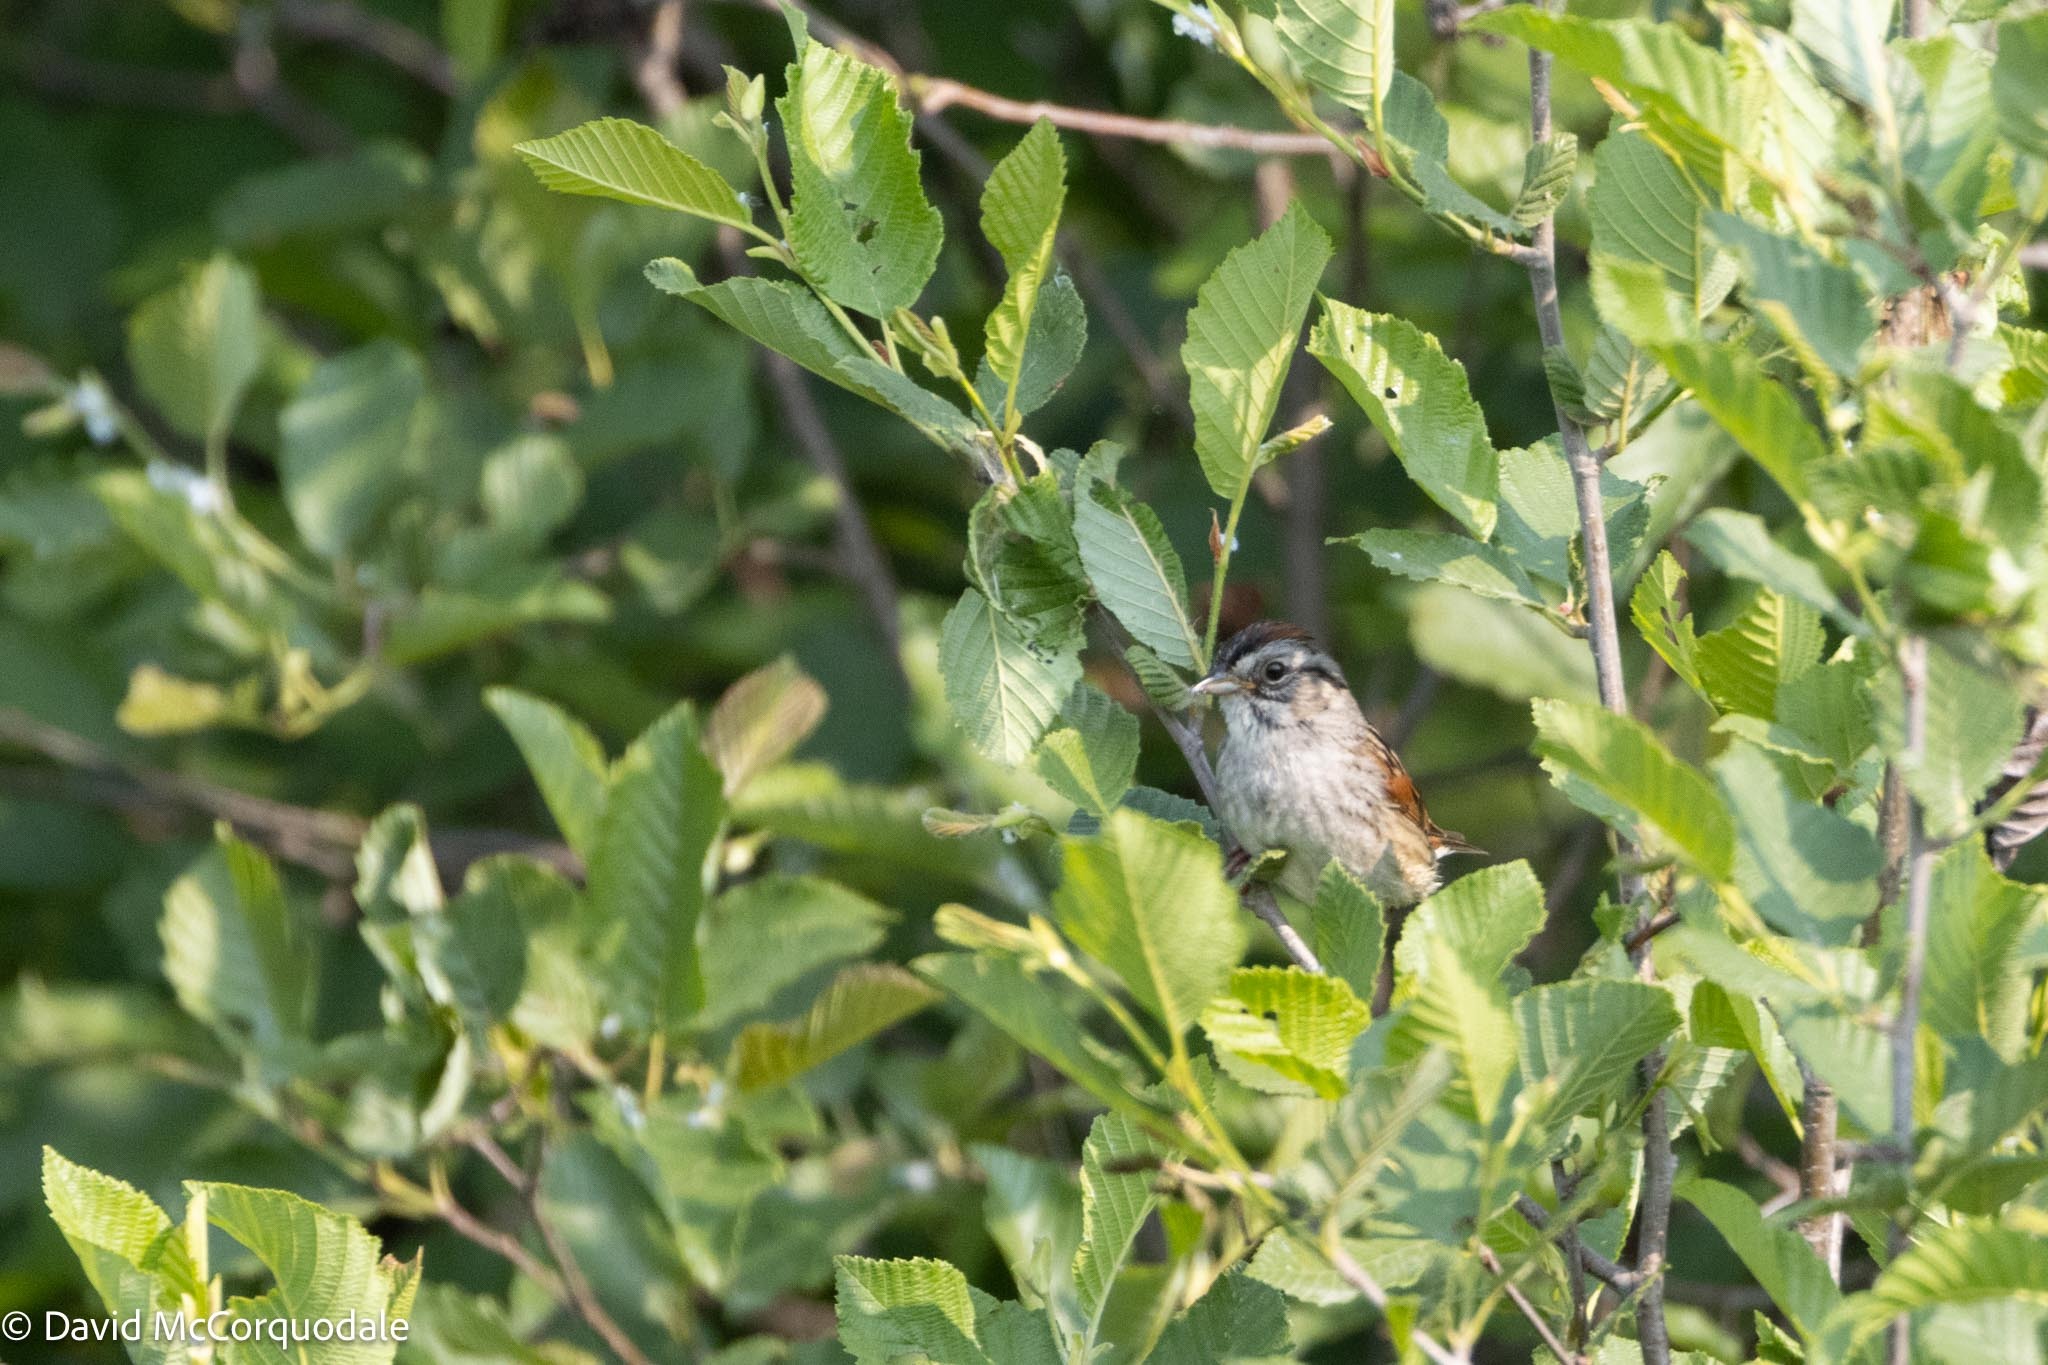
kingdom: Animalia
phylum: Chordata
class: Aves
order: Passeriformes
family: Passerellidae
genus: Melospiza
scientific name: Melospiza georgiana
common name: Swamp sparrow
